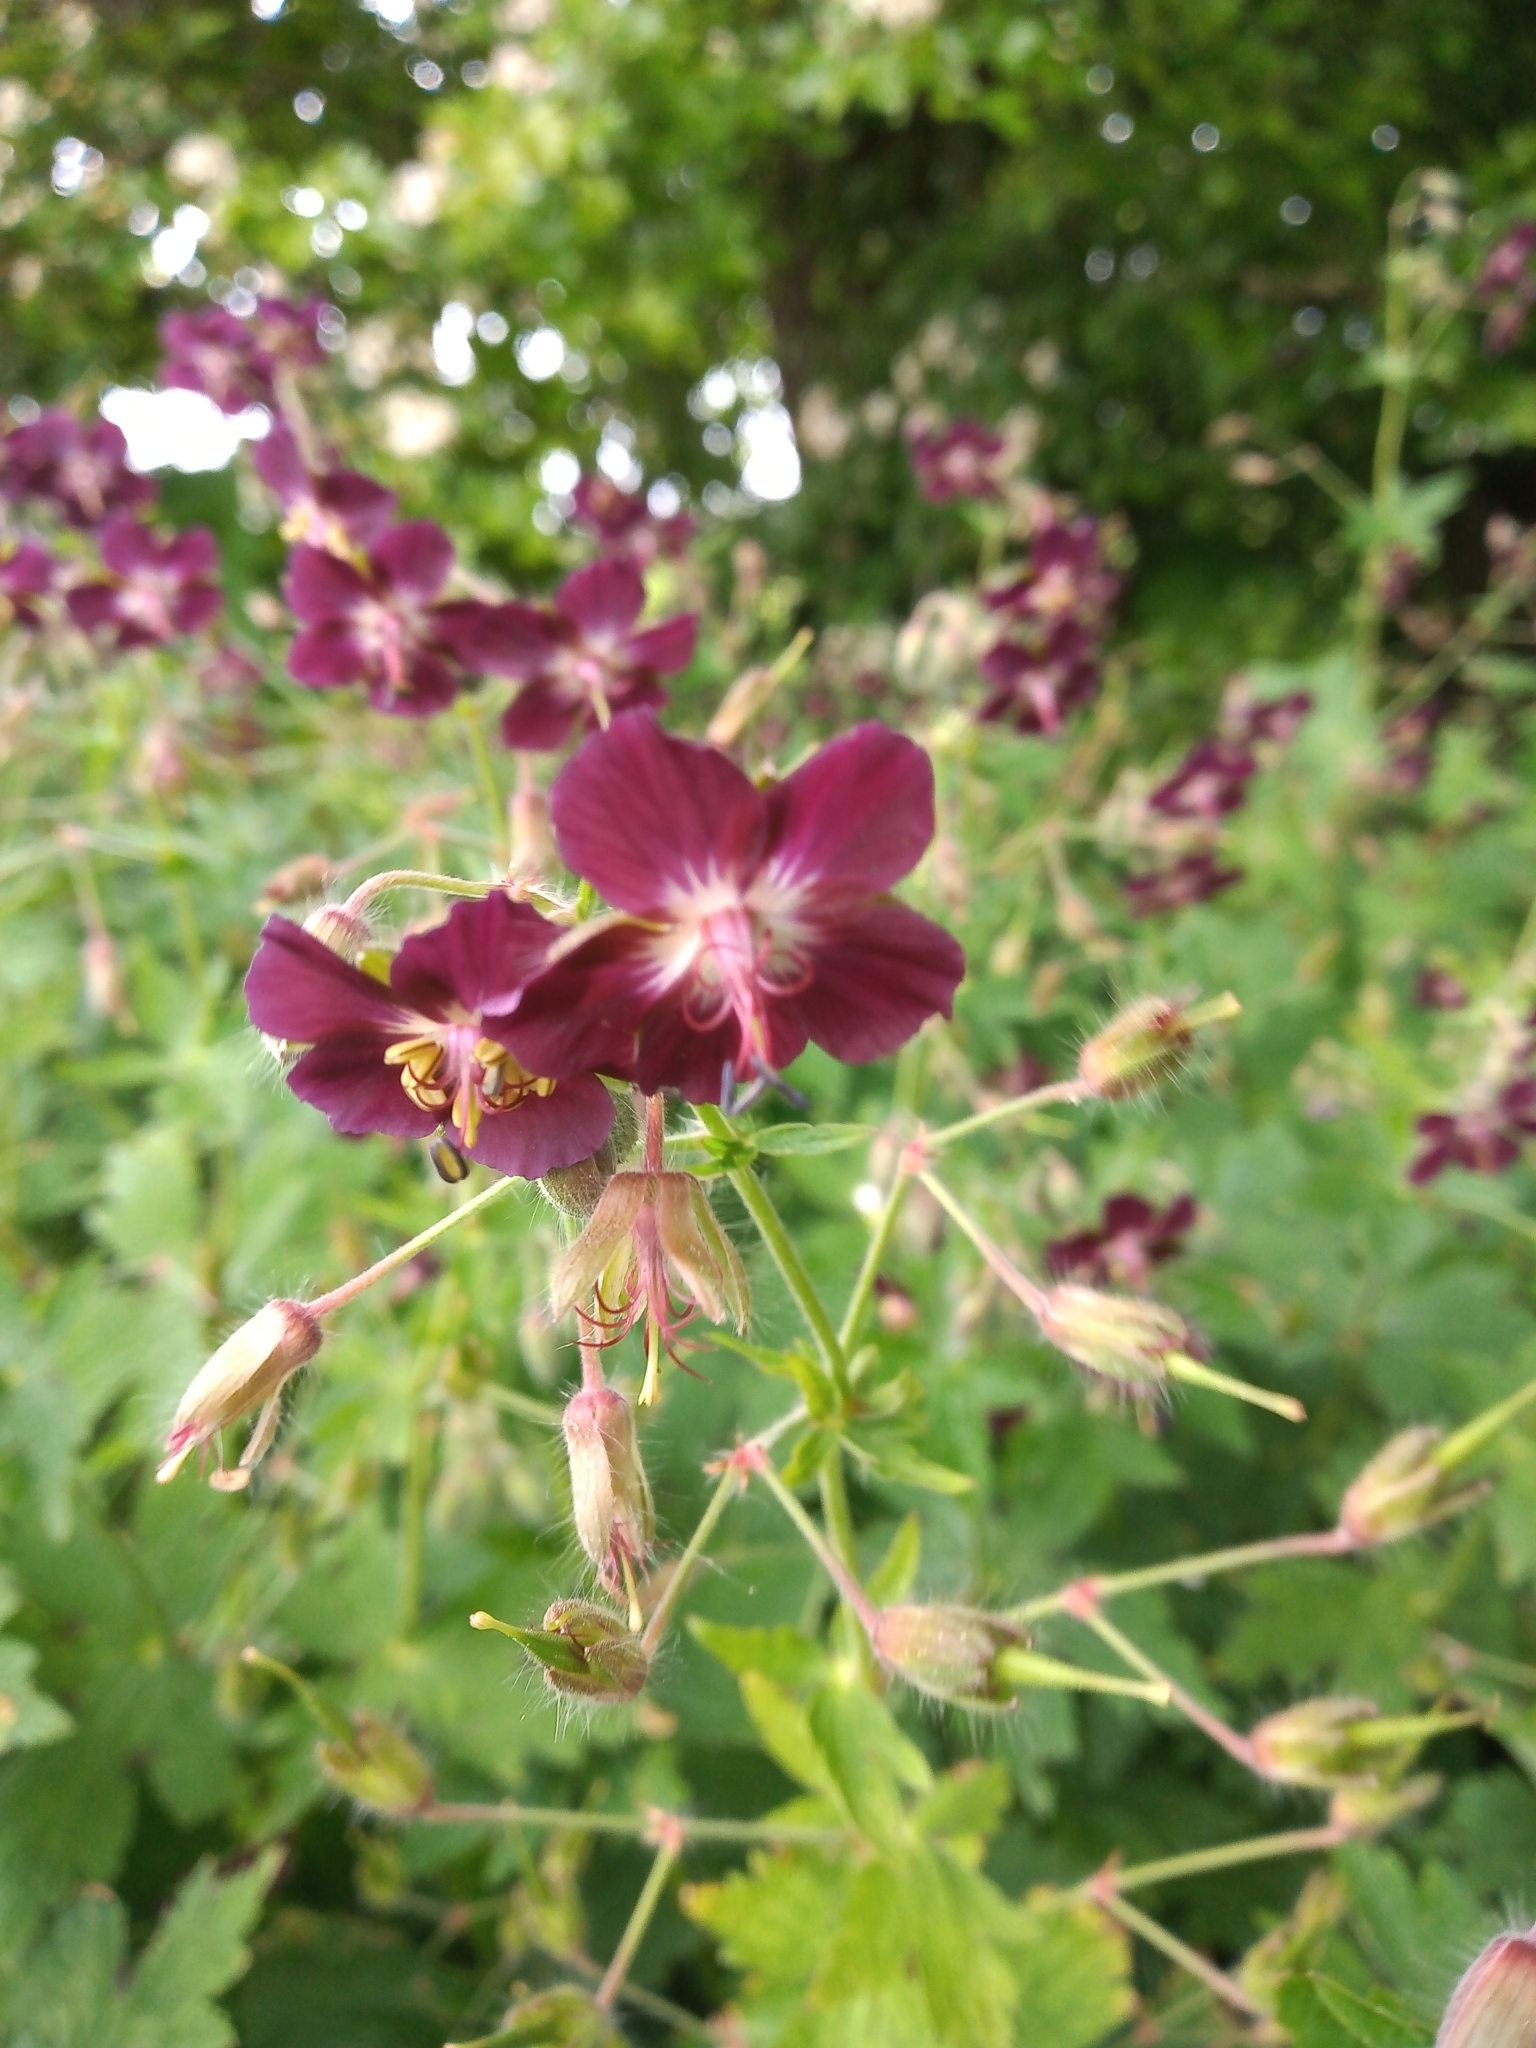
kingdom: Plantae
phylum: Tracheophyta
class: Magnoliopsida
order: Geraniales
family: Geraniaceae
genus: Geranium
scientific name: Geranium phaeum
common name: Dusky crane's-bill
